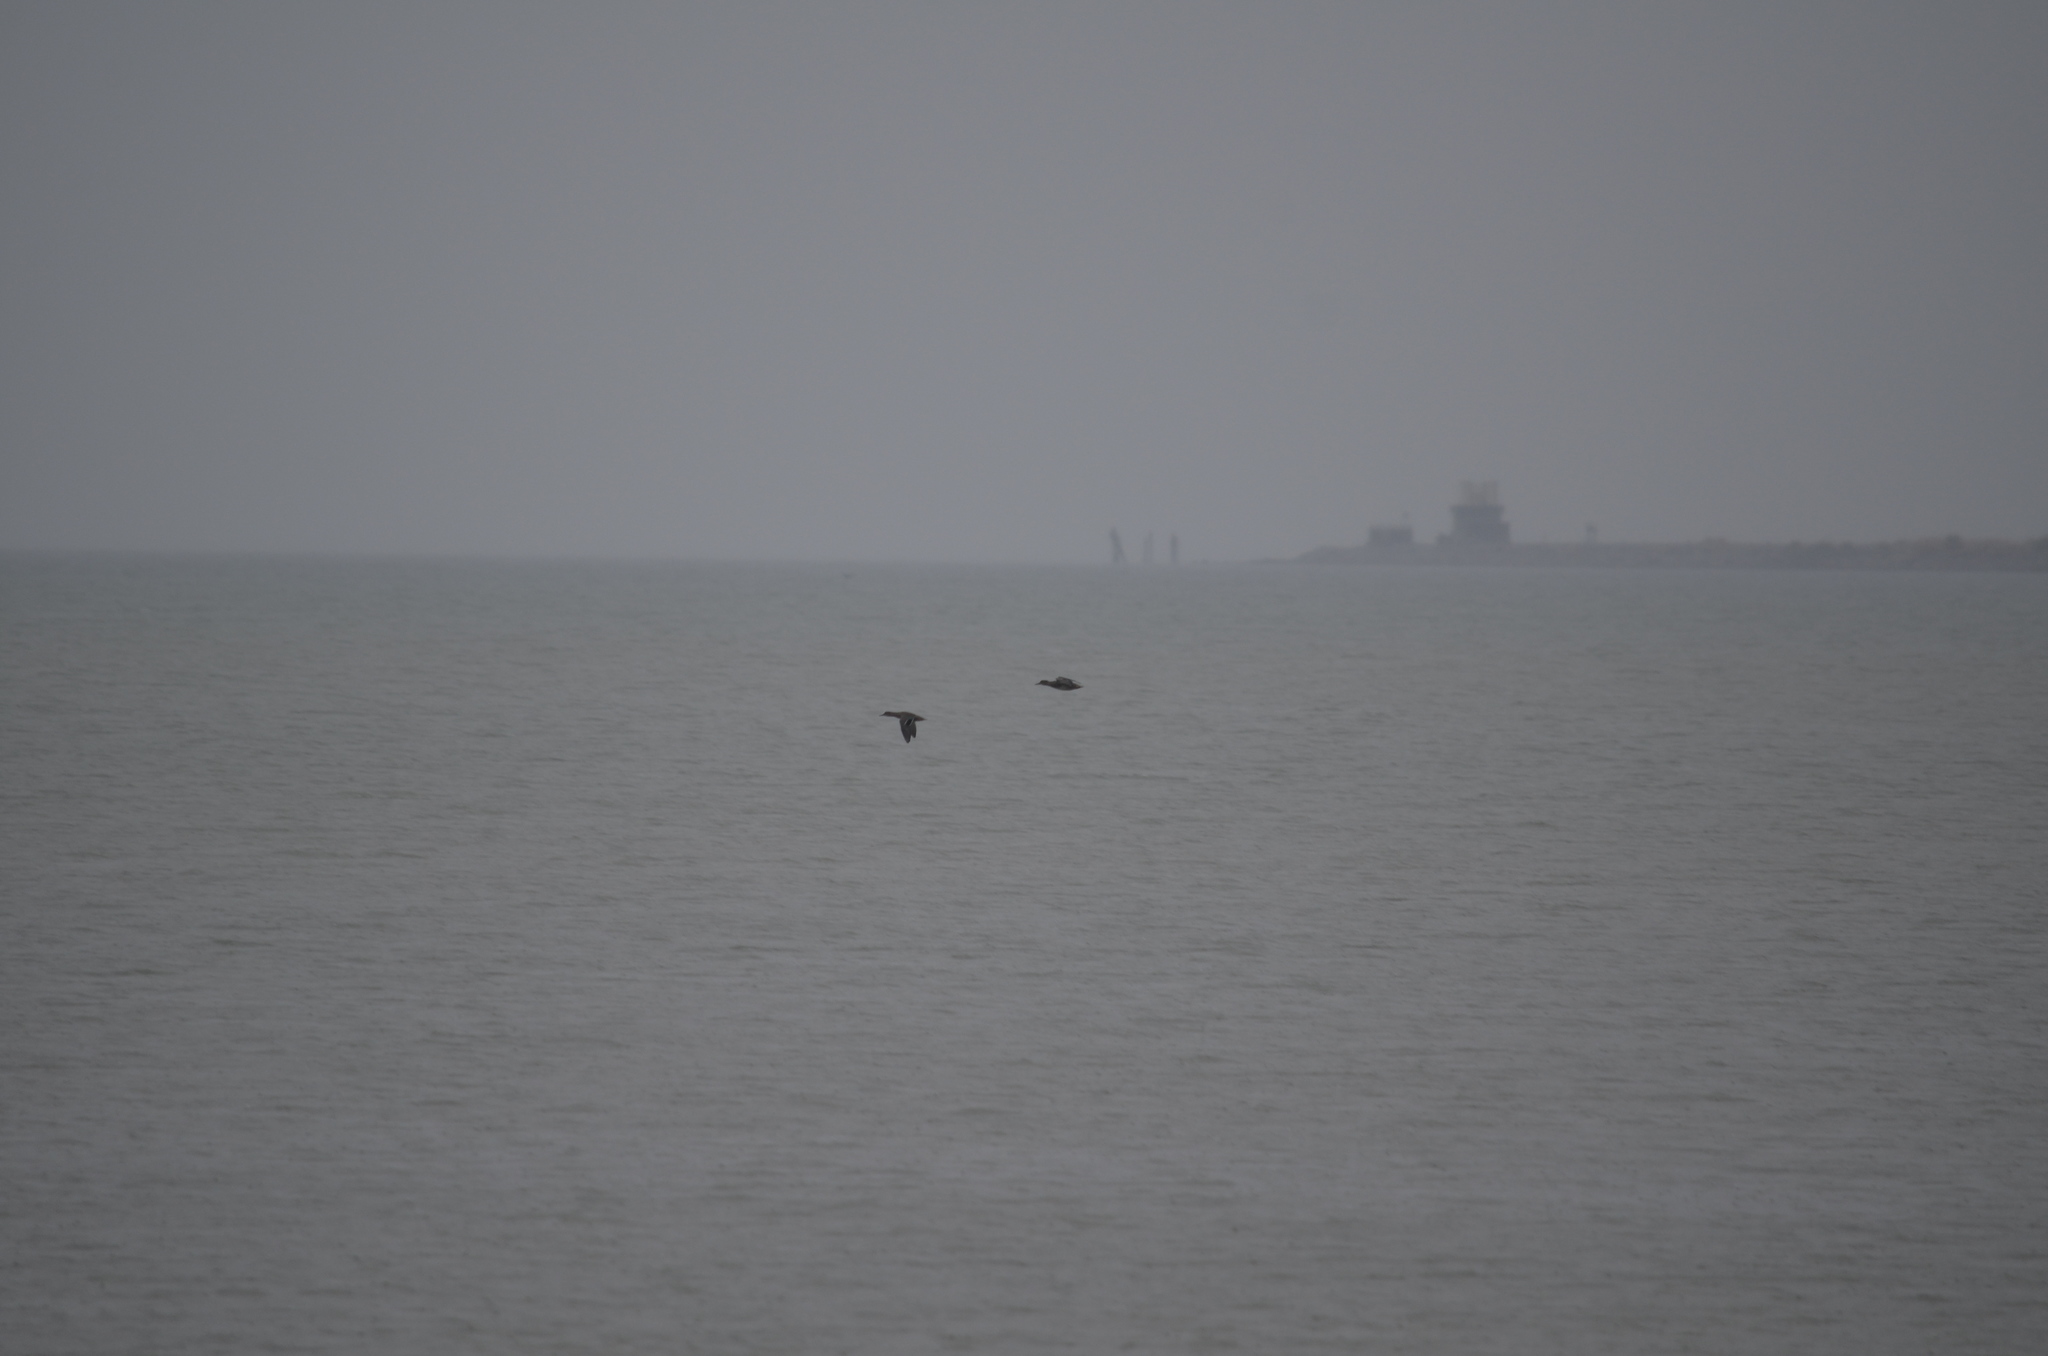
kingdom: Animalia
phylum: Chordata
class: Aves
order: Anseriformes
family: Anatidae
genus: Anas
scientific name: Anas platyrhynchos
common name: Mallard
